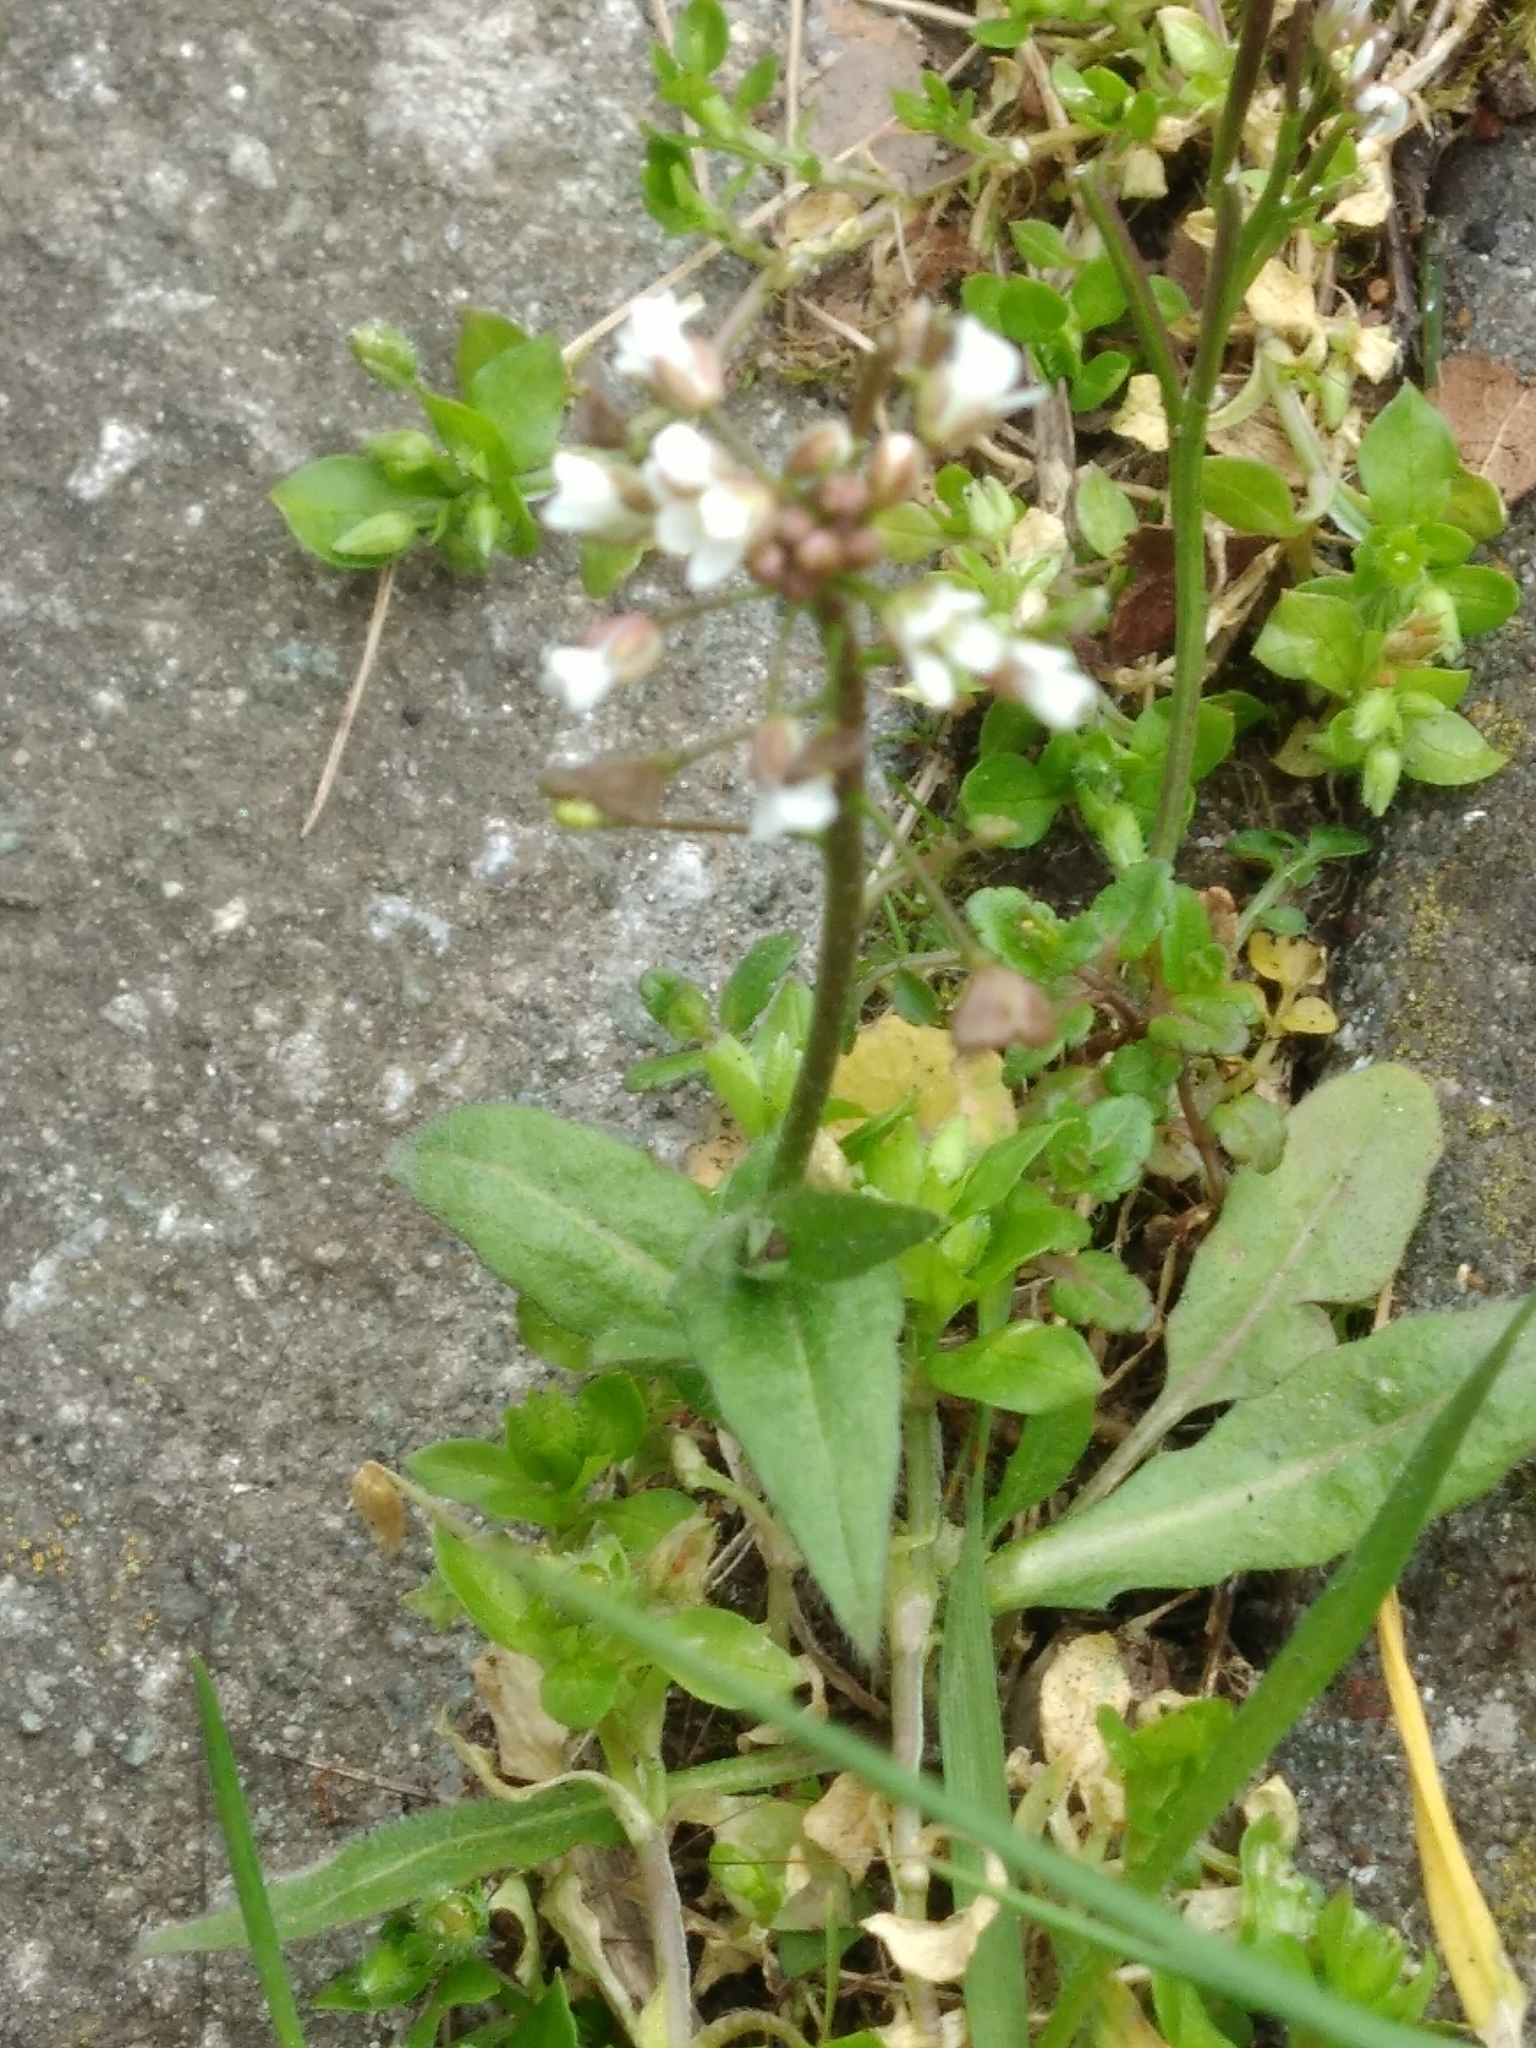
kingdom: Plantae
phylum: Tracheophyta
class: Magnoliopsida
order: Brassicales
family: Brassicaceae
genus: Capsella
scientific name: Capsella bursa-pastoris
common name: Shepherd's purse
